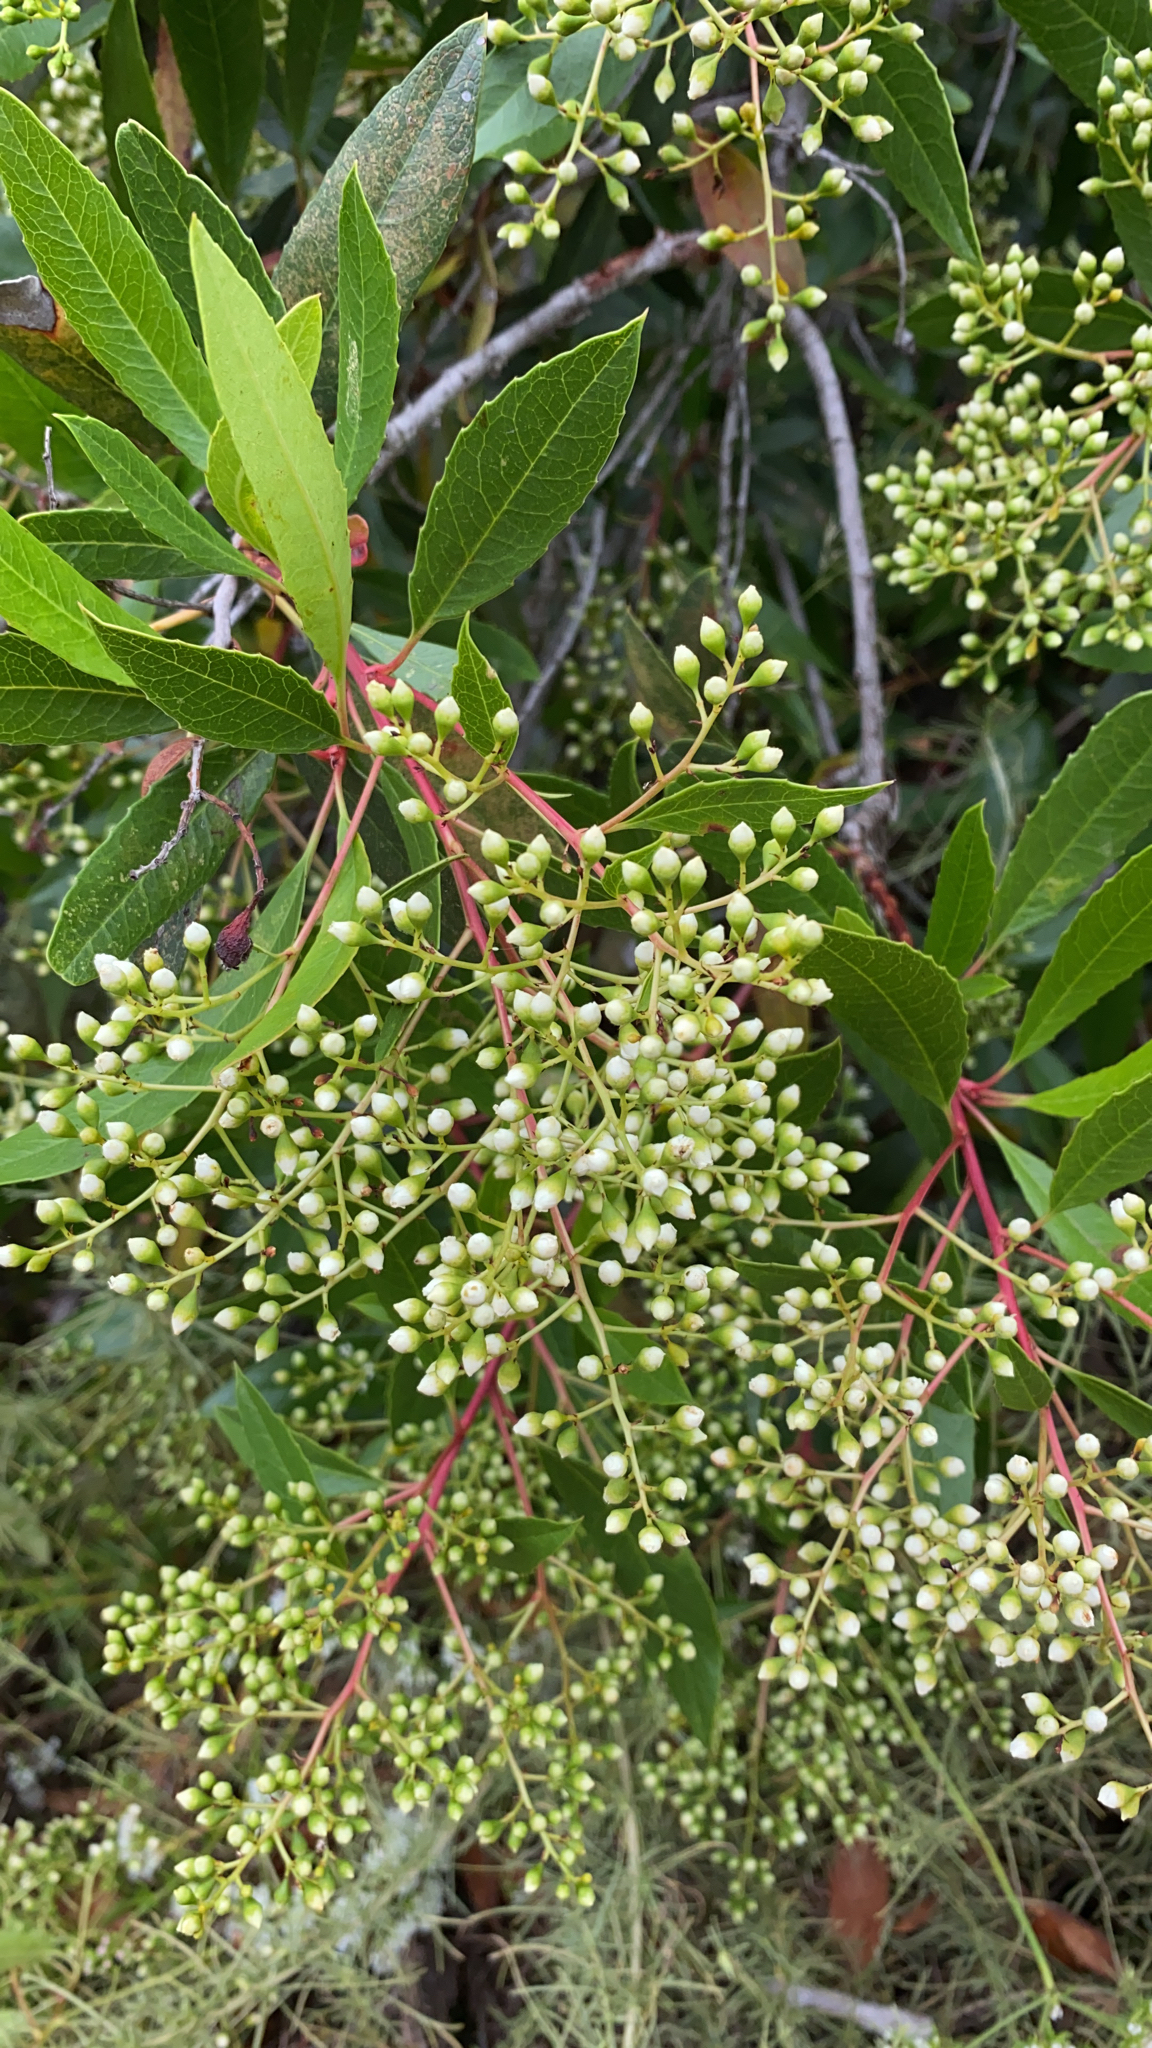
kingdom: Plantae
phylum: Tracheophyta
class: Magnoliopsida
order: Rosales
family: Rosaceae
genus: Heteromeles
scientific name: Heteromeles arbutifolia
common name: California-holly
